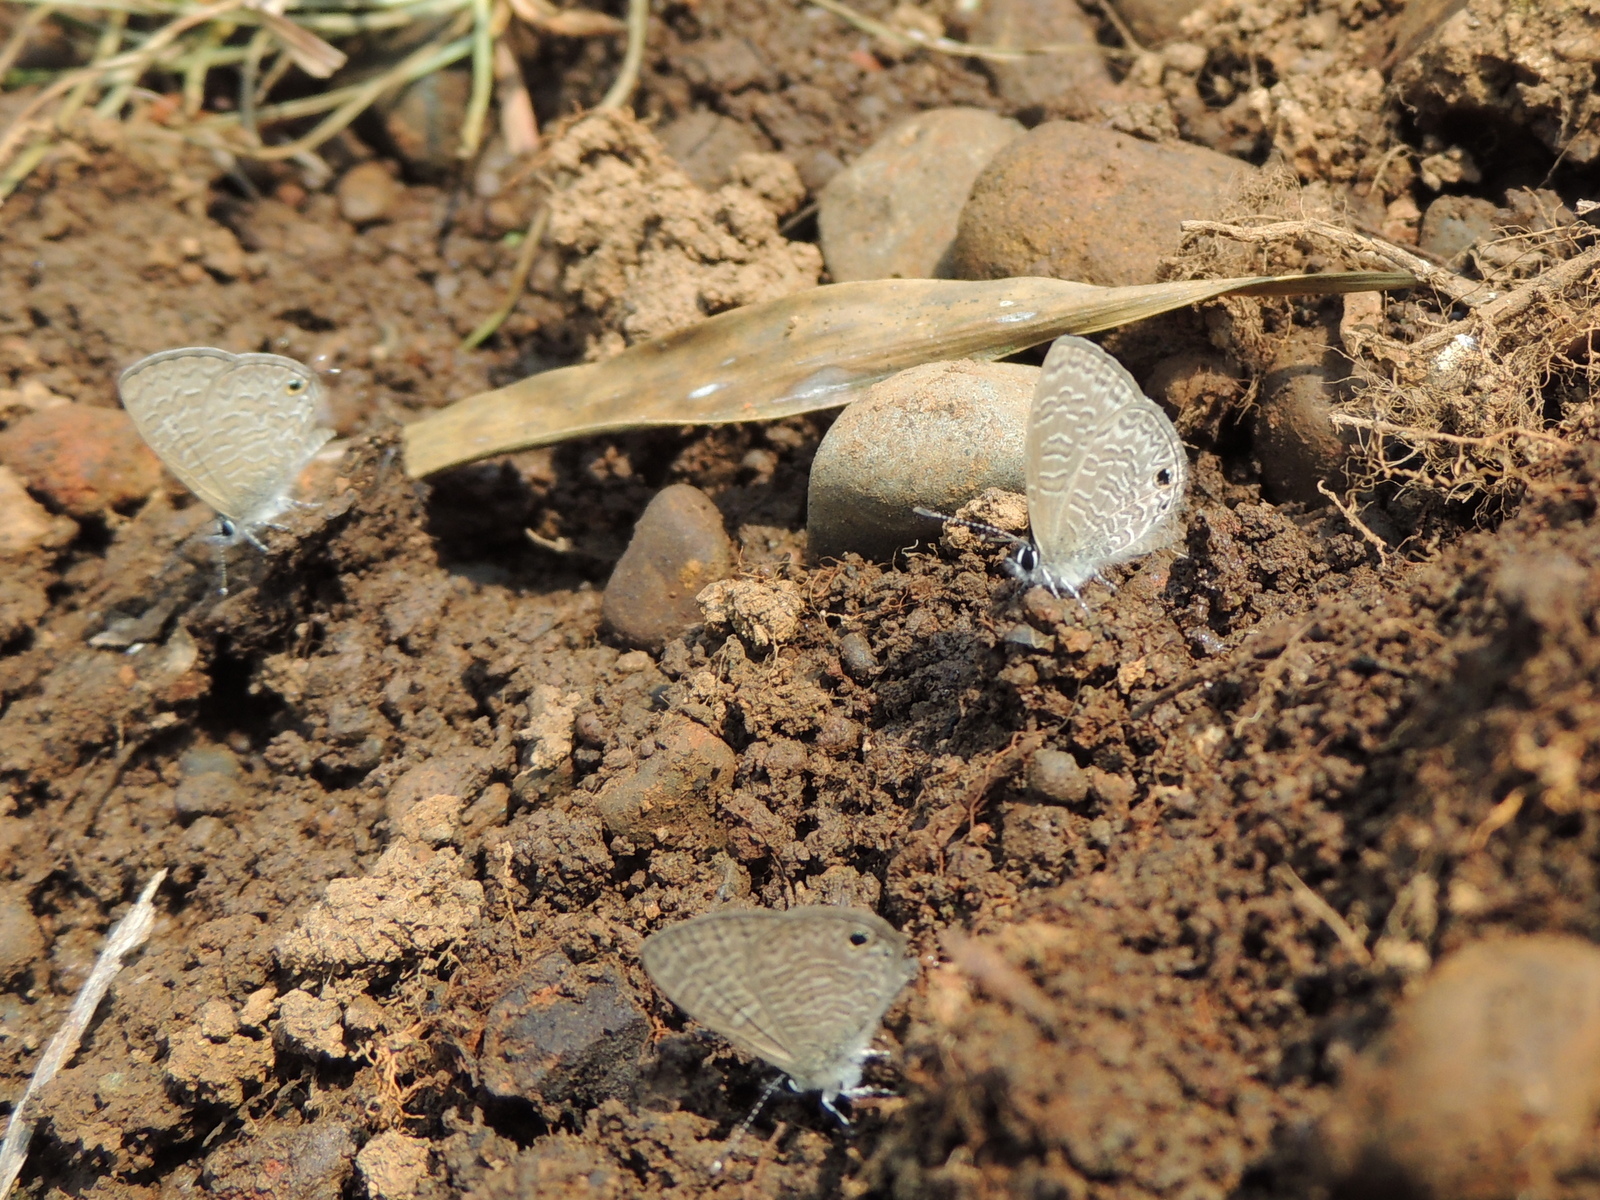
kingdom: Animalia
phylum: Arthropoda
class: Insecta
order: Lepidoptera
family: Lycaenidae
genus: Prosotas
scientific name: Prosotas nora
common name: Common line blue
